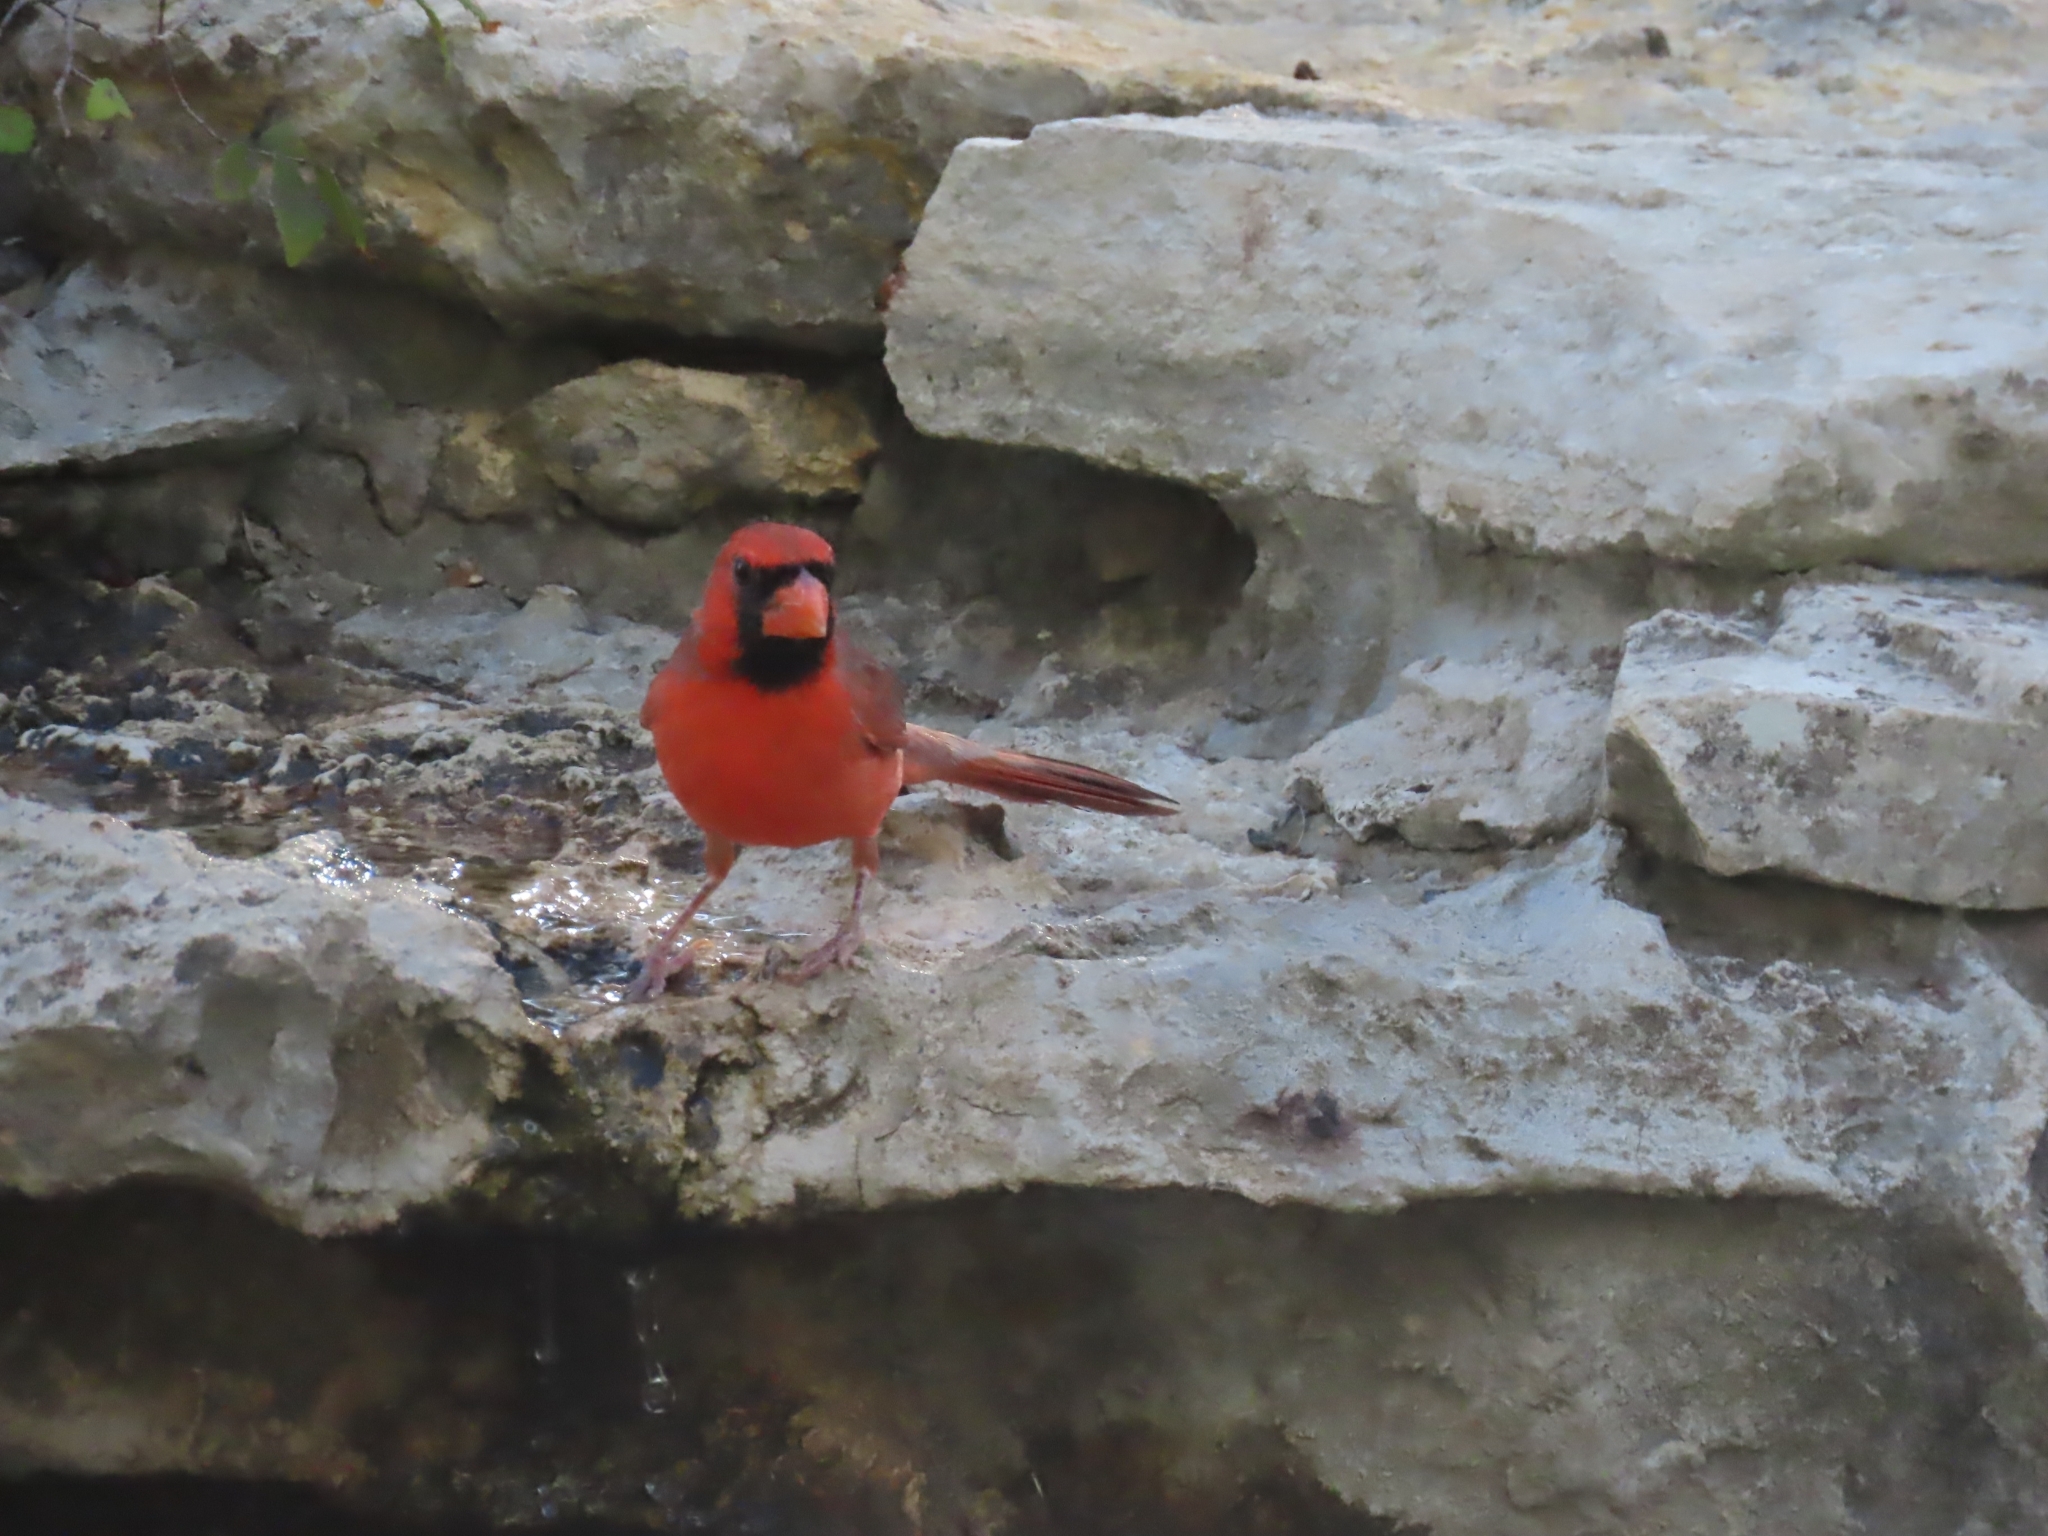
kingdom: Animalia
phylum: Chordata
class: Aves
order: Passeriformes
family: Cardinalidae
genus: Cardinalis
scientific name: Cardinalis cardinalis
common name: Northern cardinal
